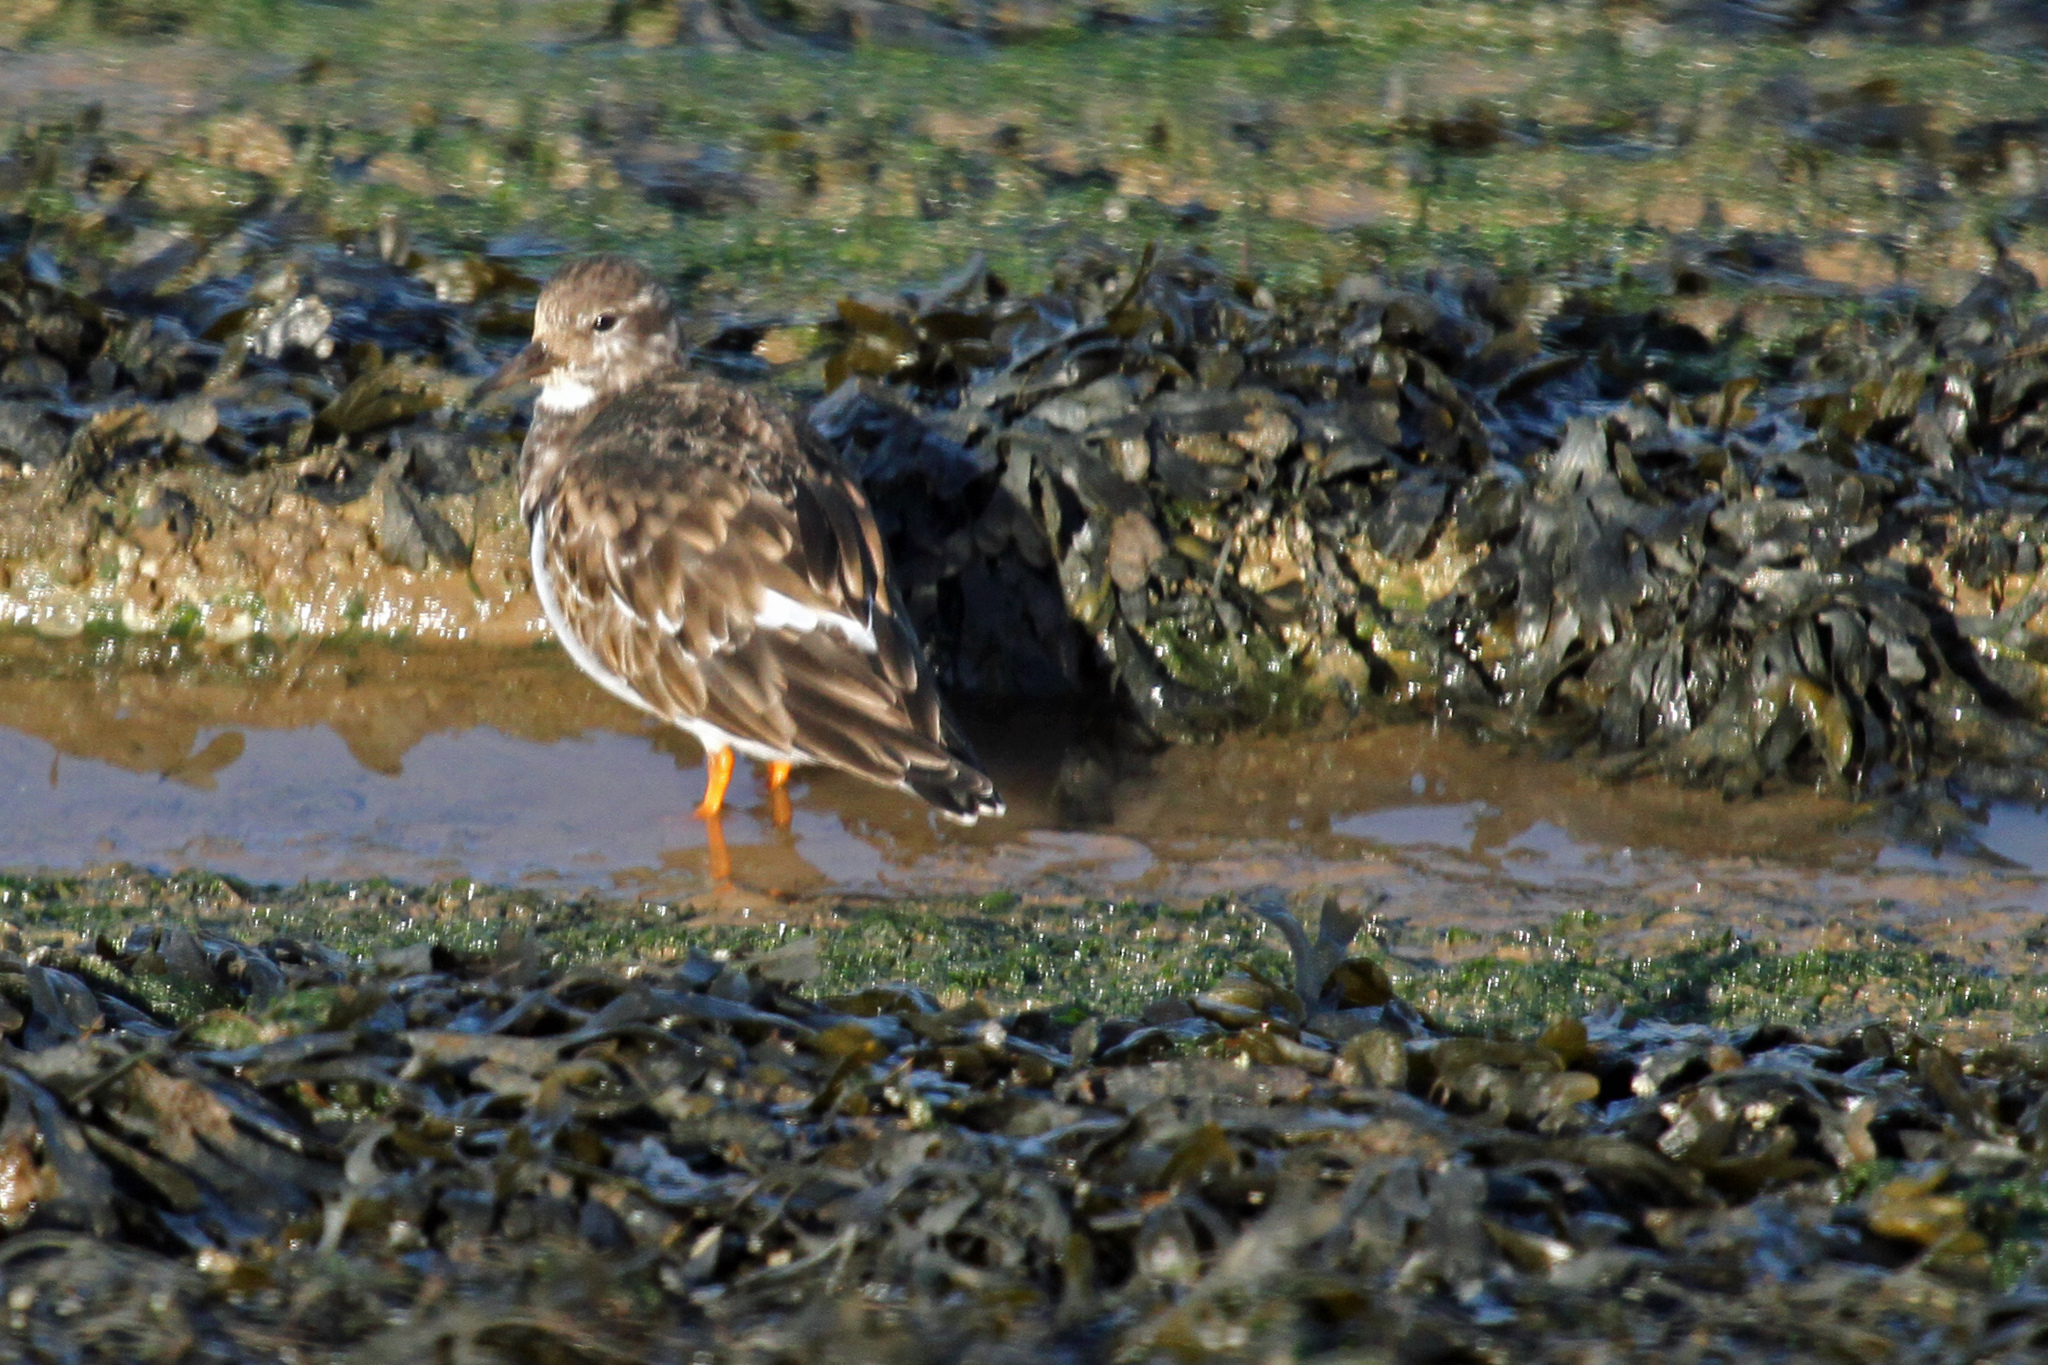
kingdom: Animalia
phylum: Chordata
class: Aves
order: Charadriiformes
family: Scolopacidae
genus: Arenaria
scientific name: Arenaria interpres
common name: Ruddy turnstone
